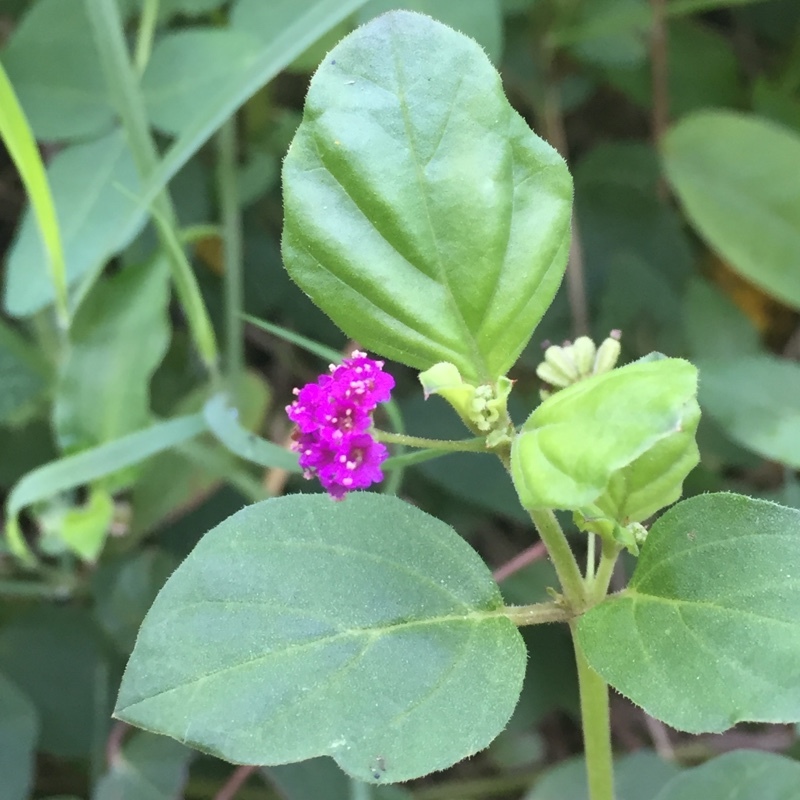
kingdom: Plantae
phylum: Tracheophyta
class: Magnoliopsida
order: Caryophyllales
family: Nyctaginaceae
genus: Boerhavia
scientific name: Boerhavia diffusa
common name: Red spiderling
